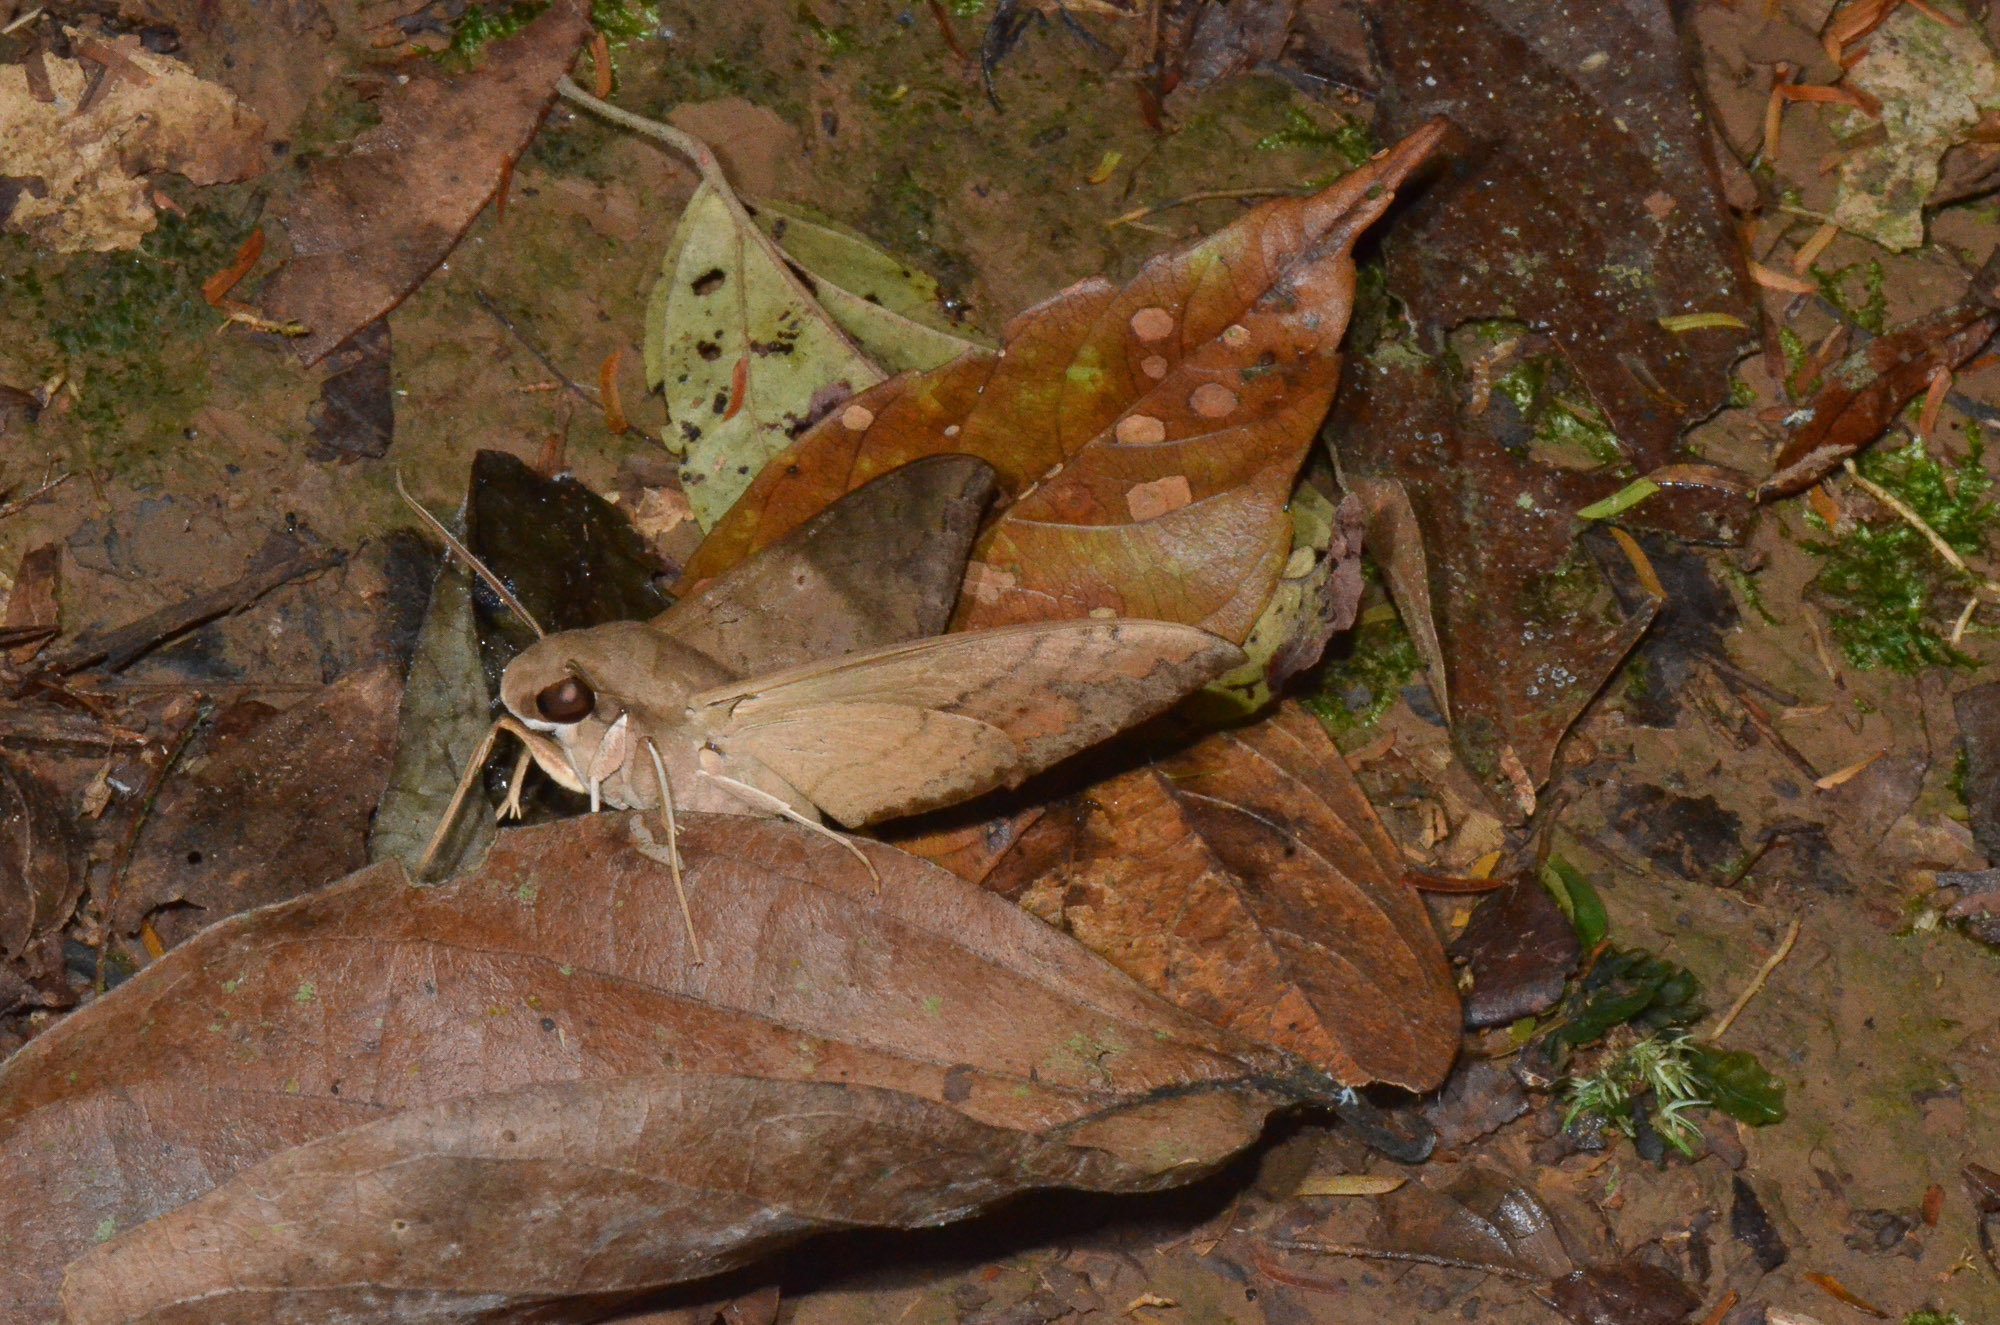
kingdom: Animalia
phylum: Arthropoda
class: Insecta
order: Lepidoptera
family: Sphingidae
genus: Pachylioides
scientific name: Pachylioides resumens
